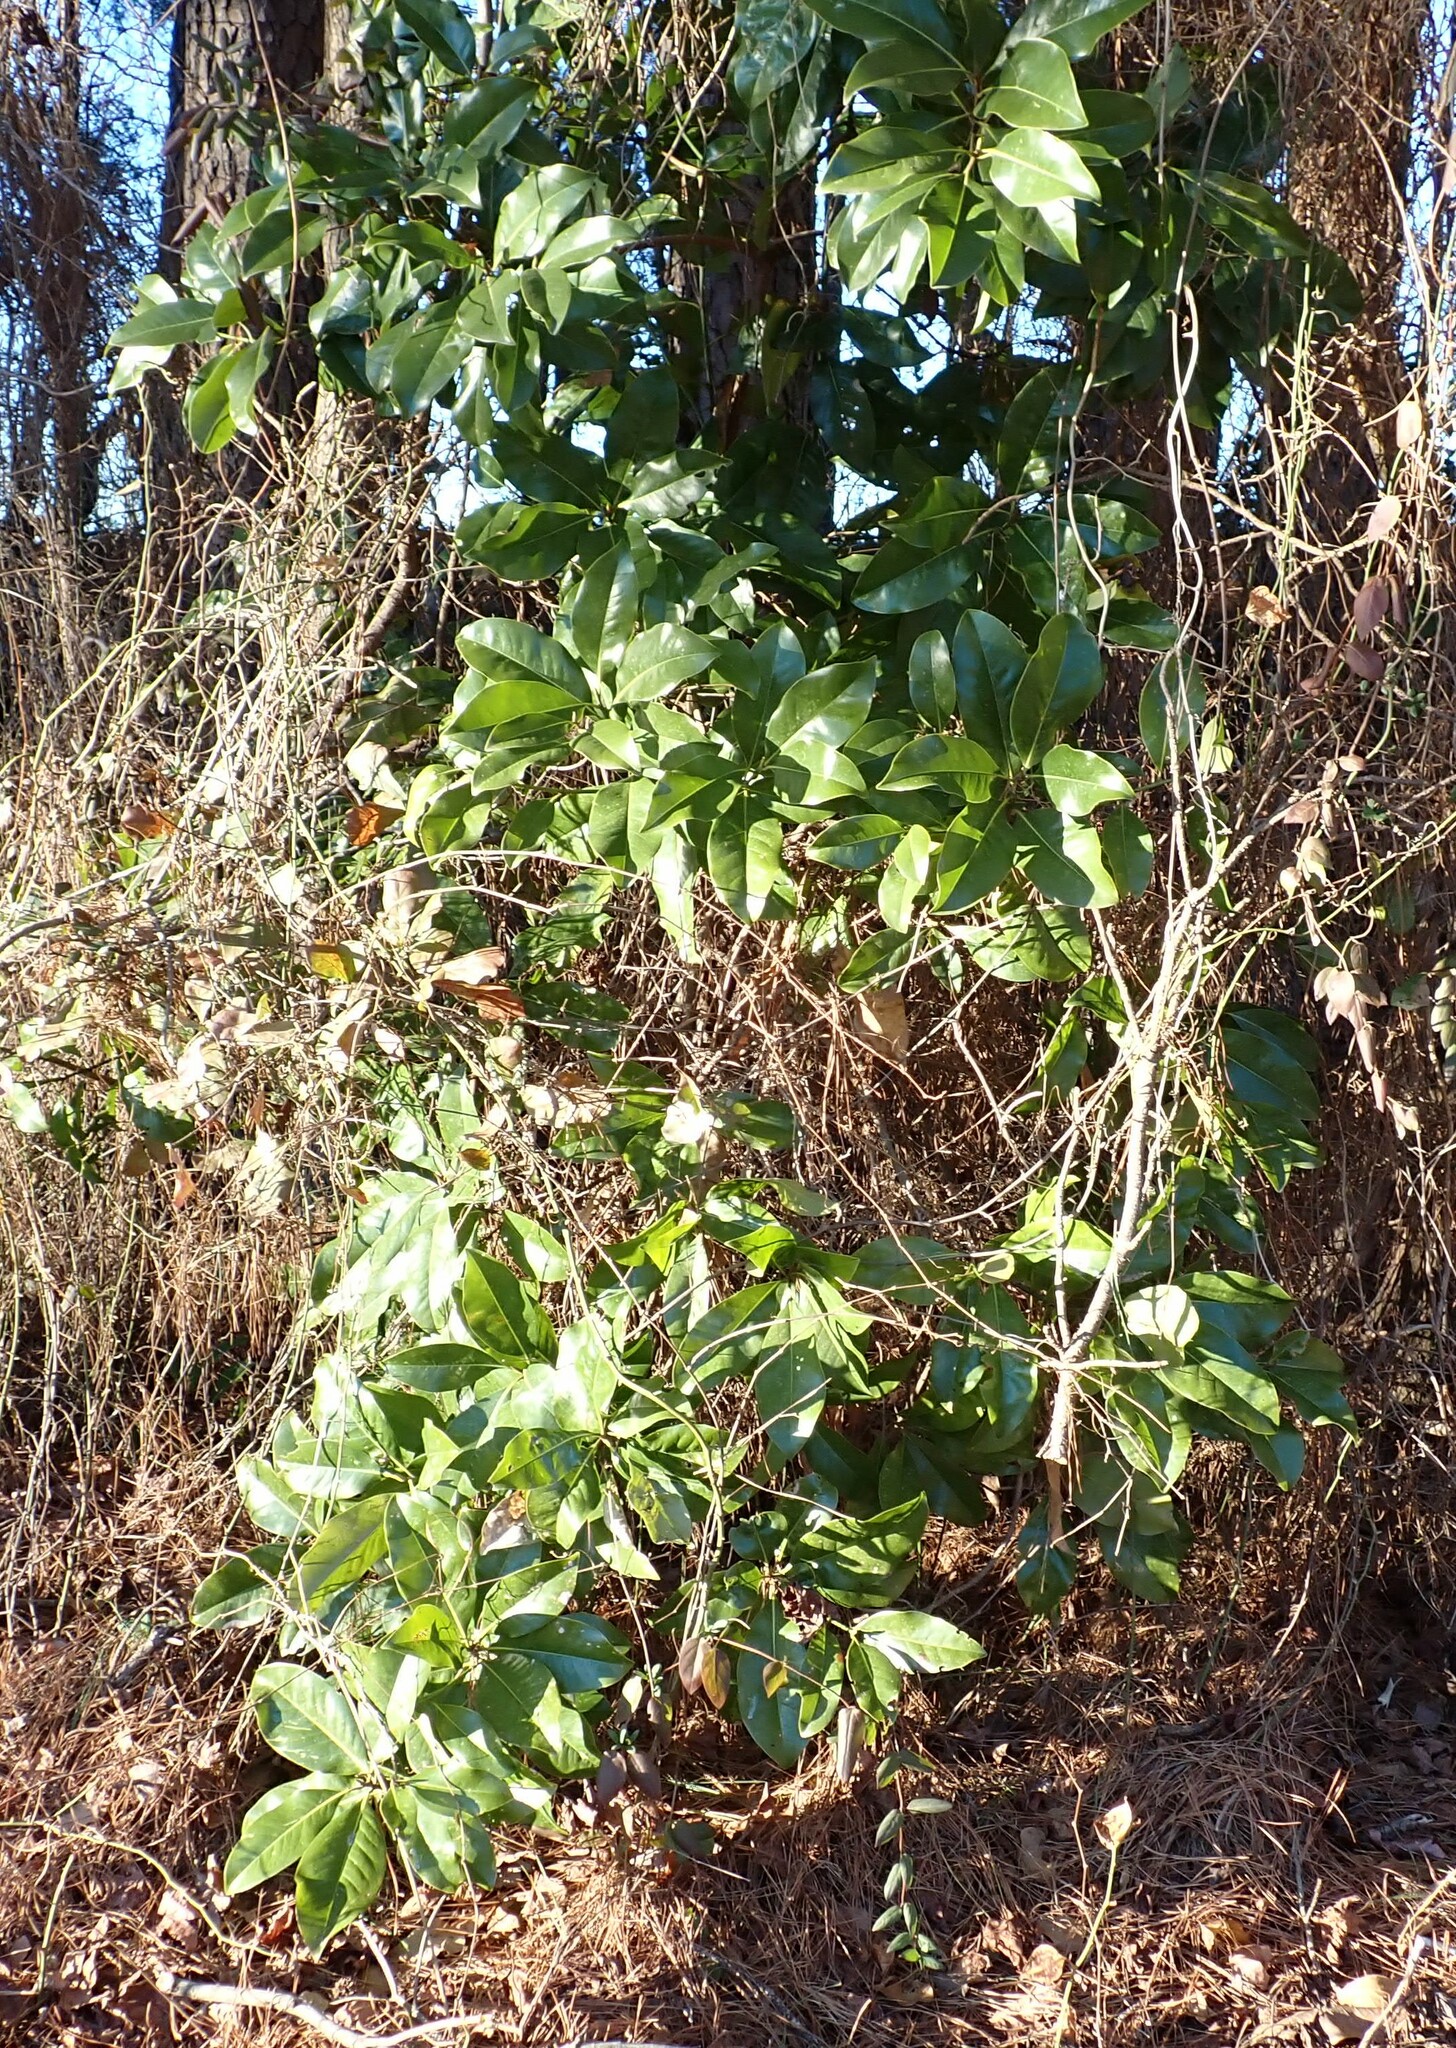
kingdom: Plantae
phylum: Tracheophyta
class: Magnoliopsida
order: Magnoliales
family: Magnoliaceae
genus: Magnolia
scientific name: Magnolia grandiflora
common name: Southern magnolia
